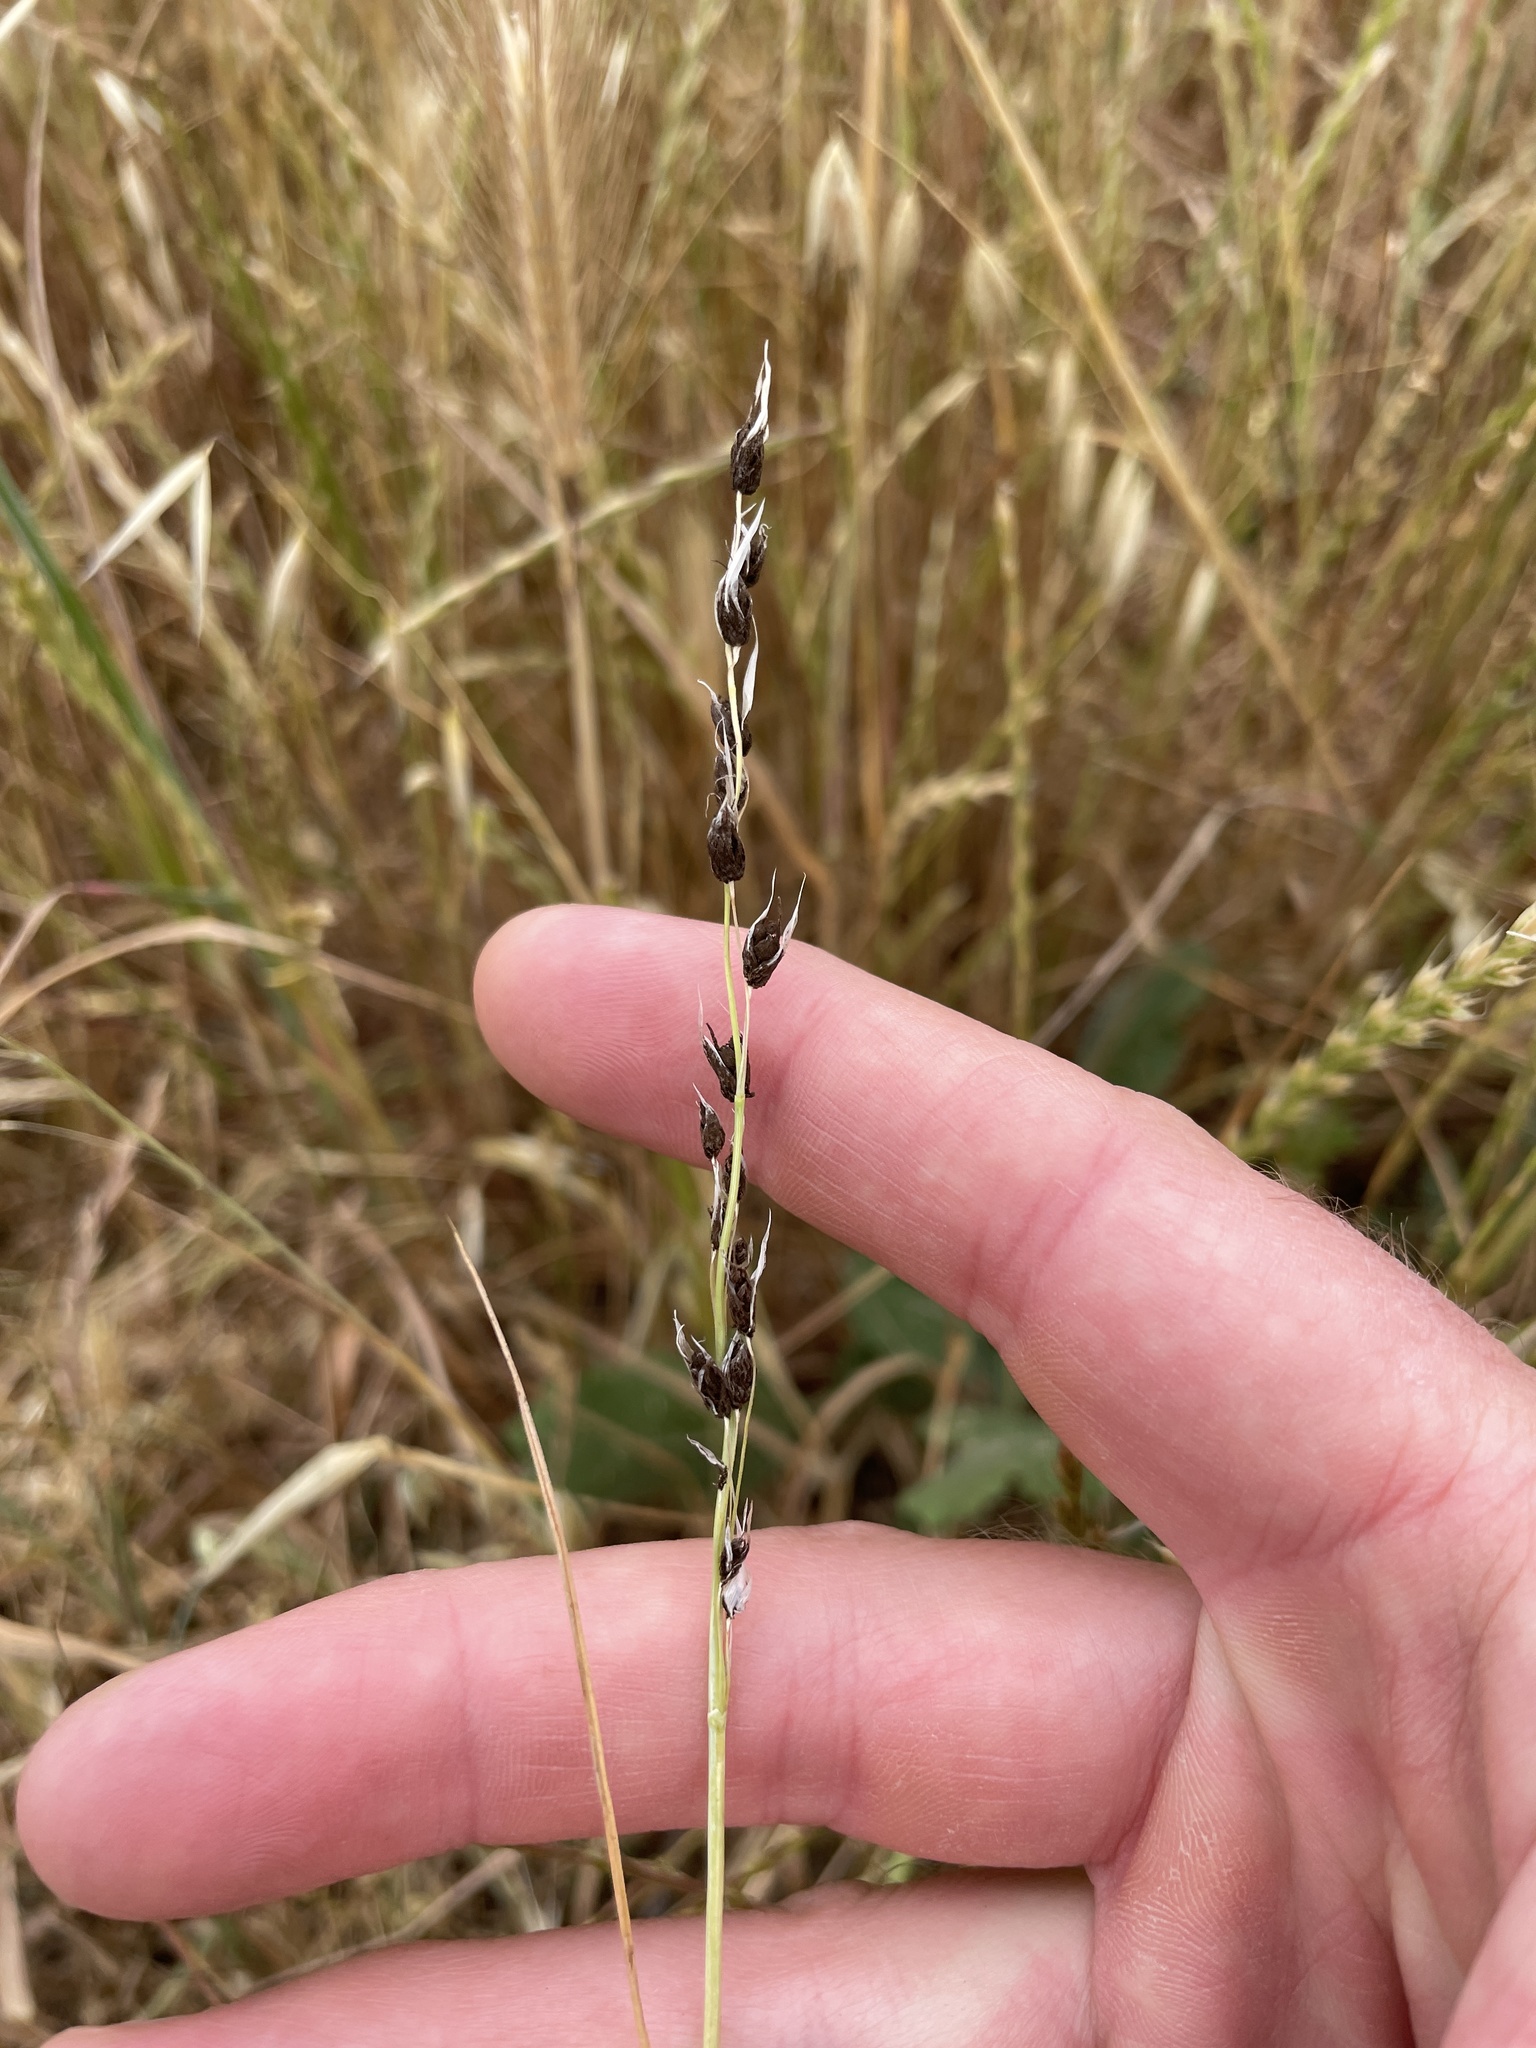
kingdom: Fungi
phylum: Basidiomycota
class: Ustilaginomycetes
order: Ustilaginales
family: Ustilaginaceae
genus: Ustilago
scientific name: Ustilago avenae
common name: Loose smut of oats & oat grass
